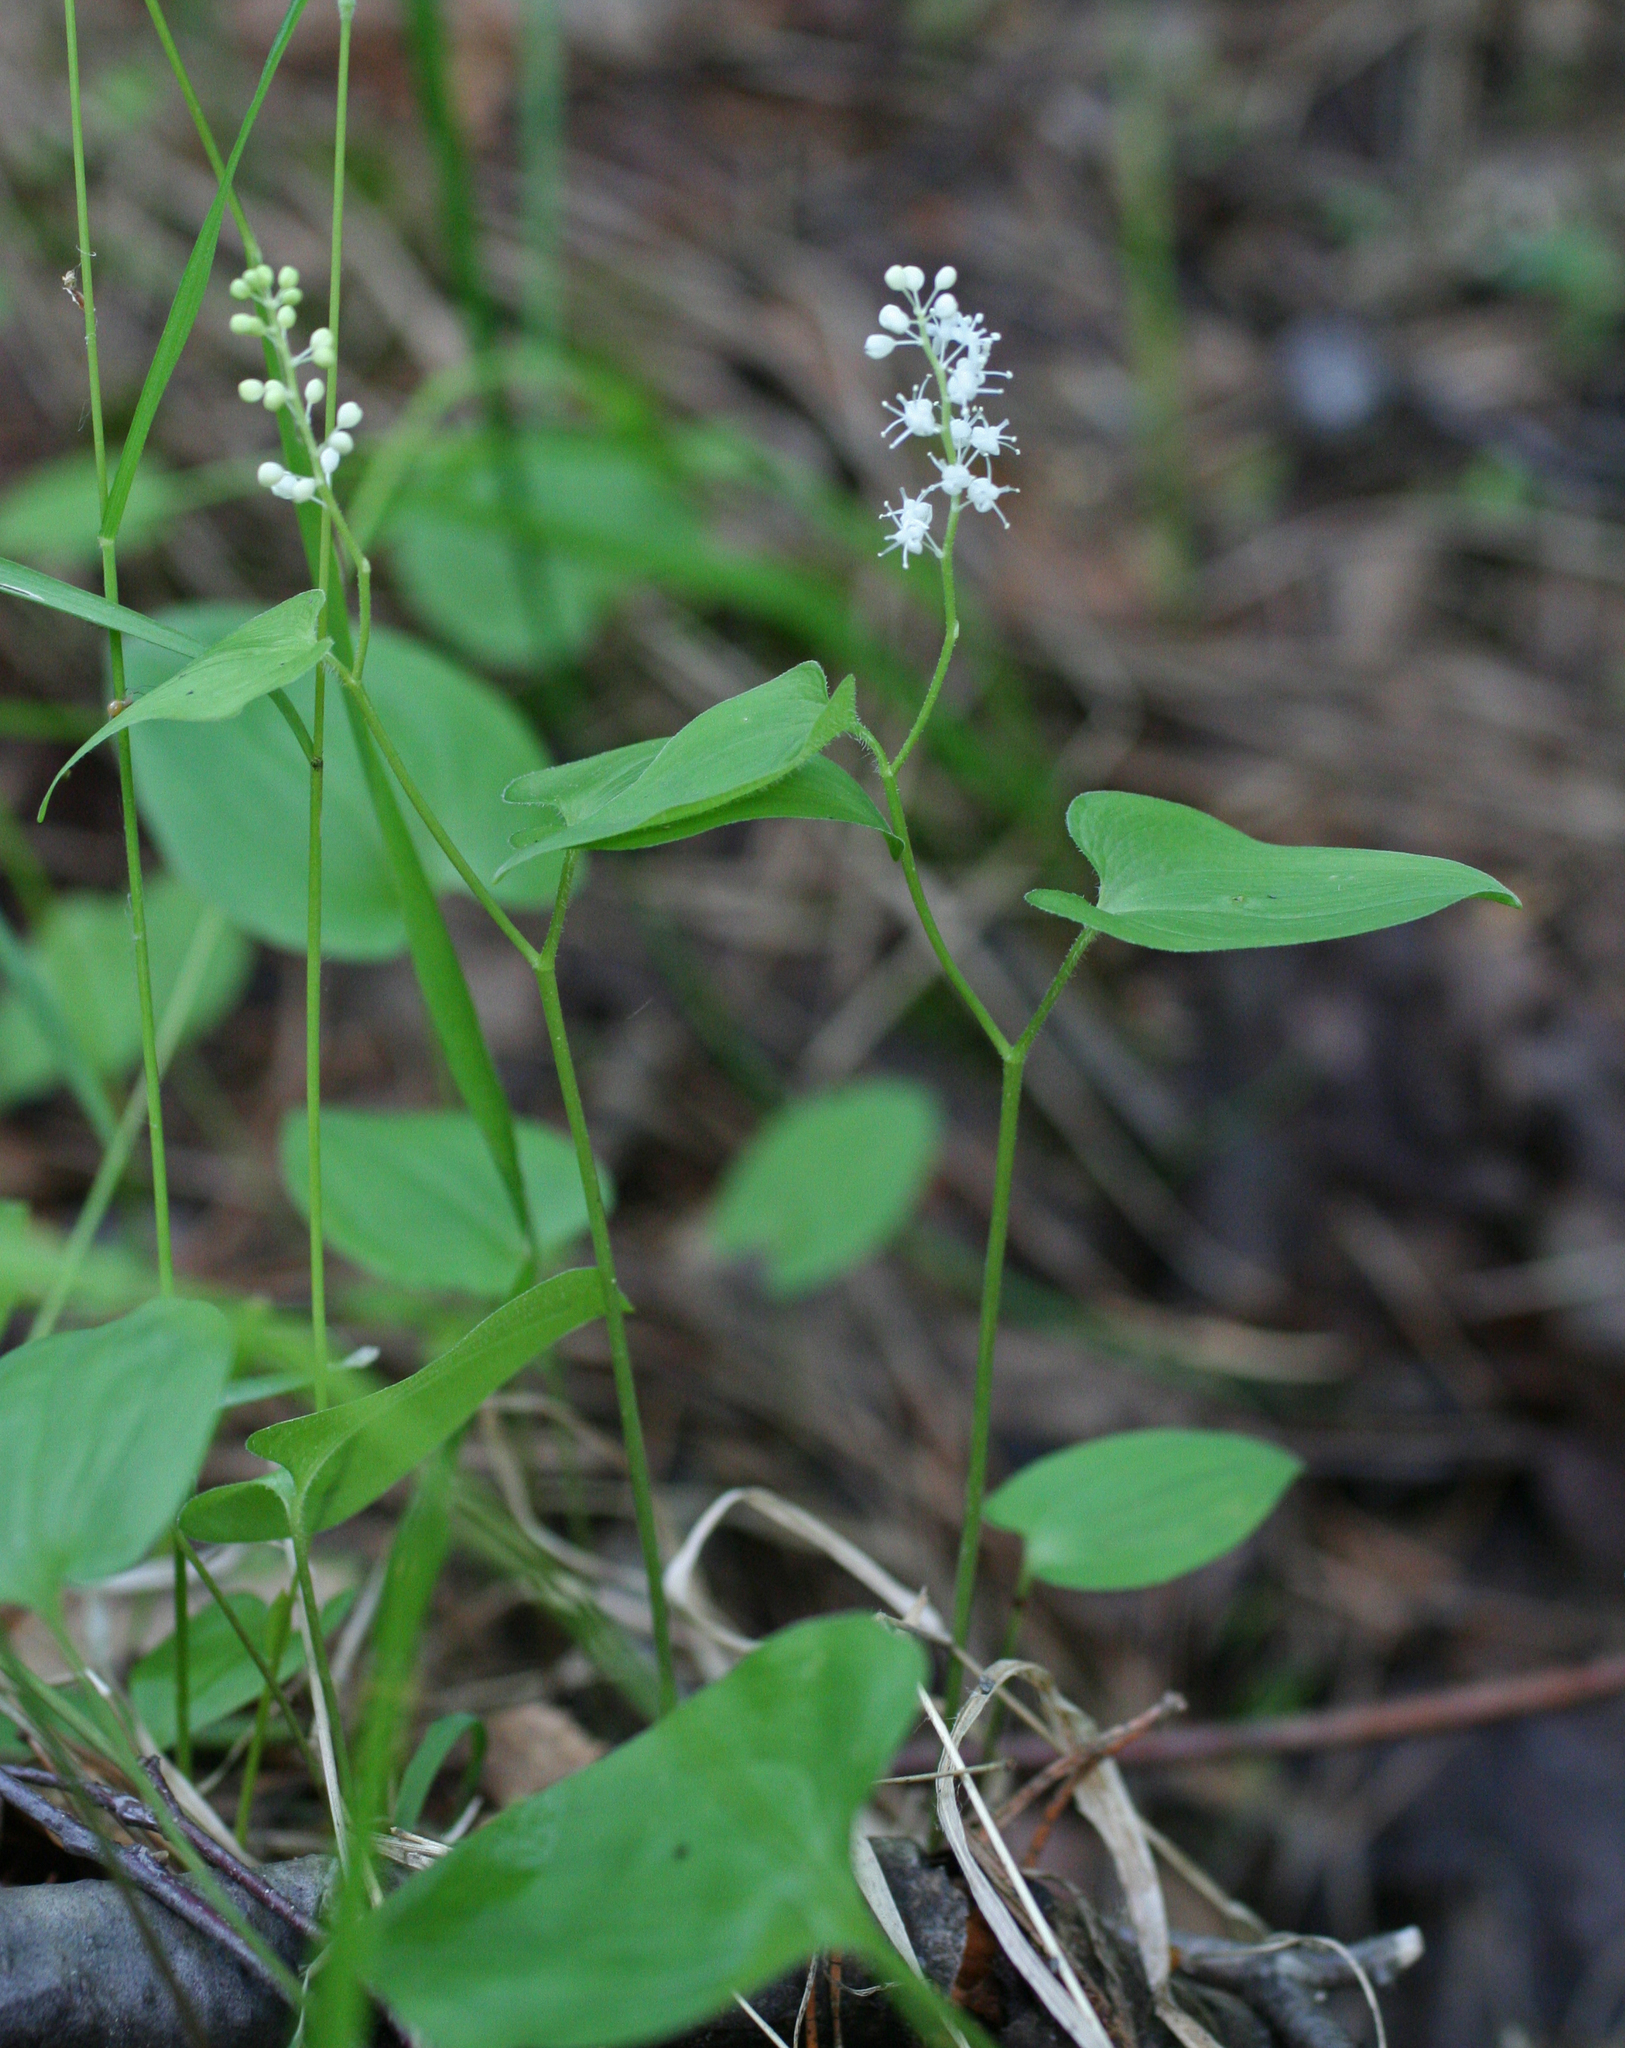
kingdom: Plantae
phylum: Tracheophyta
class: Liliopsida
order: Asparagales
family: Asparagaceae
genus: Maianthemum
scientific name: Maianthemum bifolium
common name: May lily
